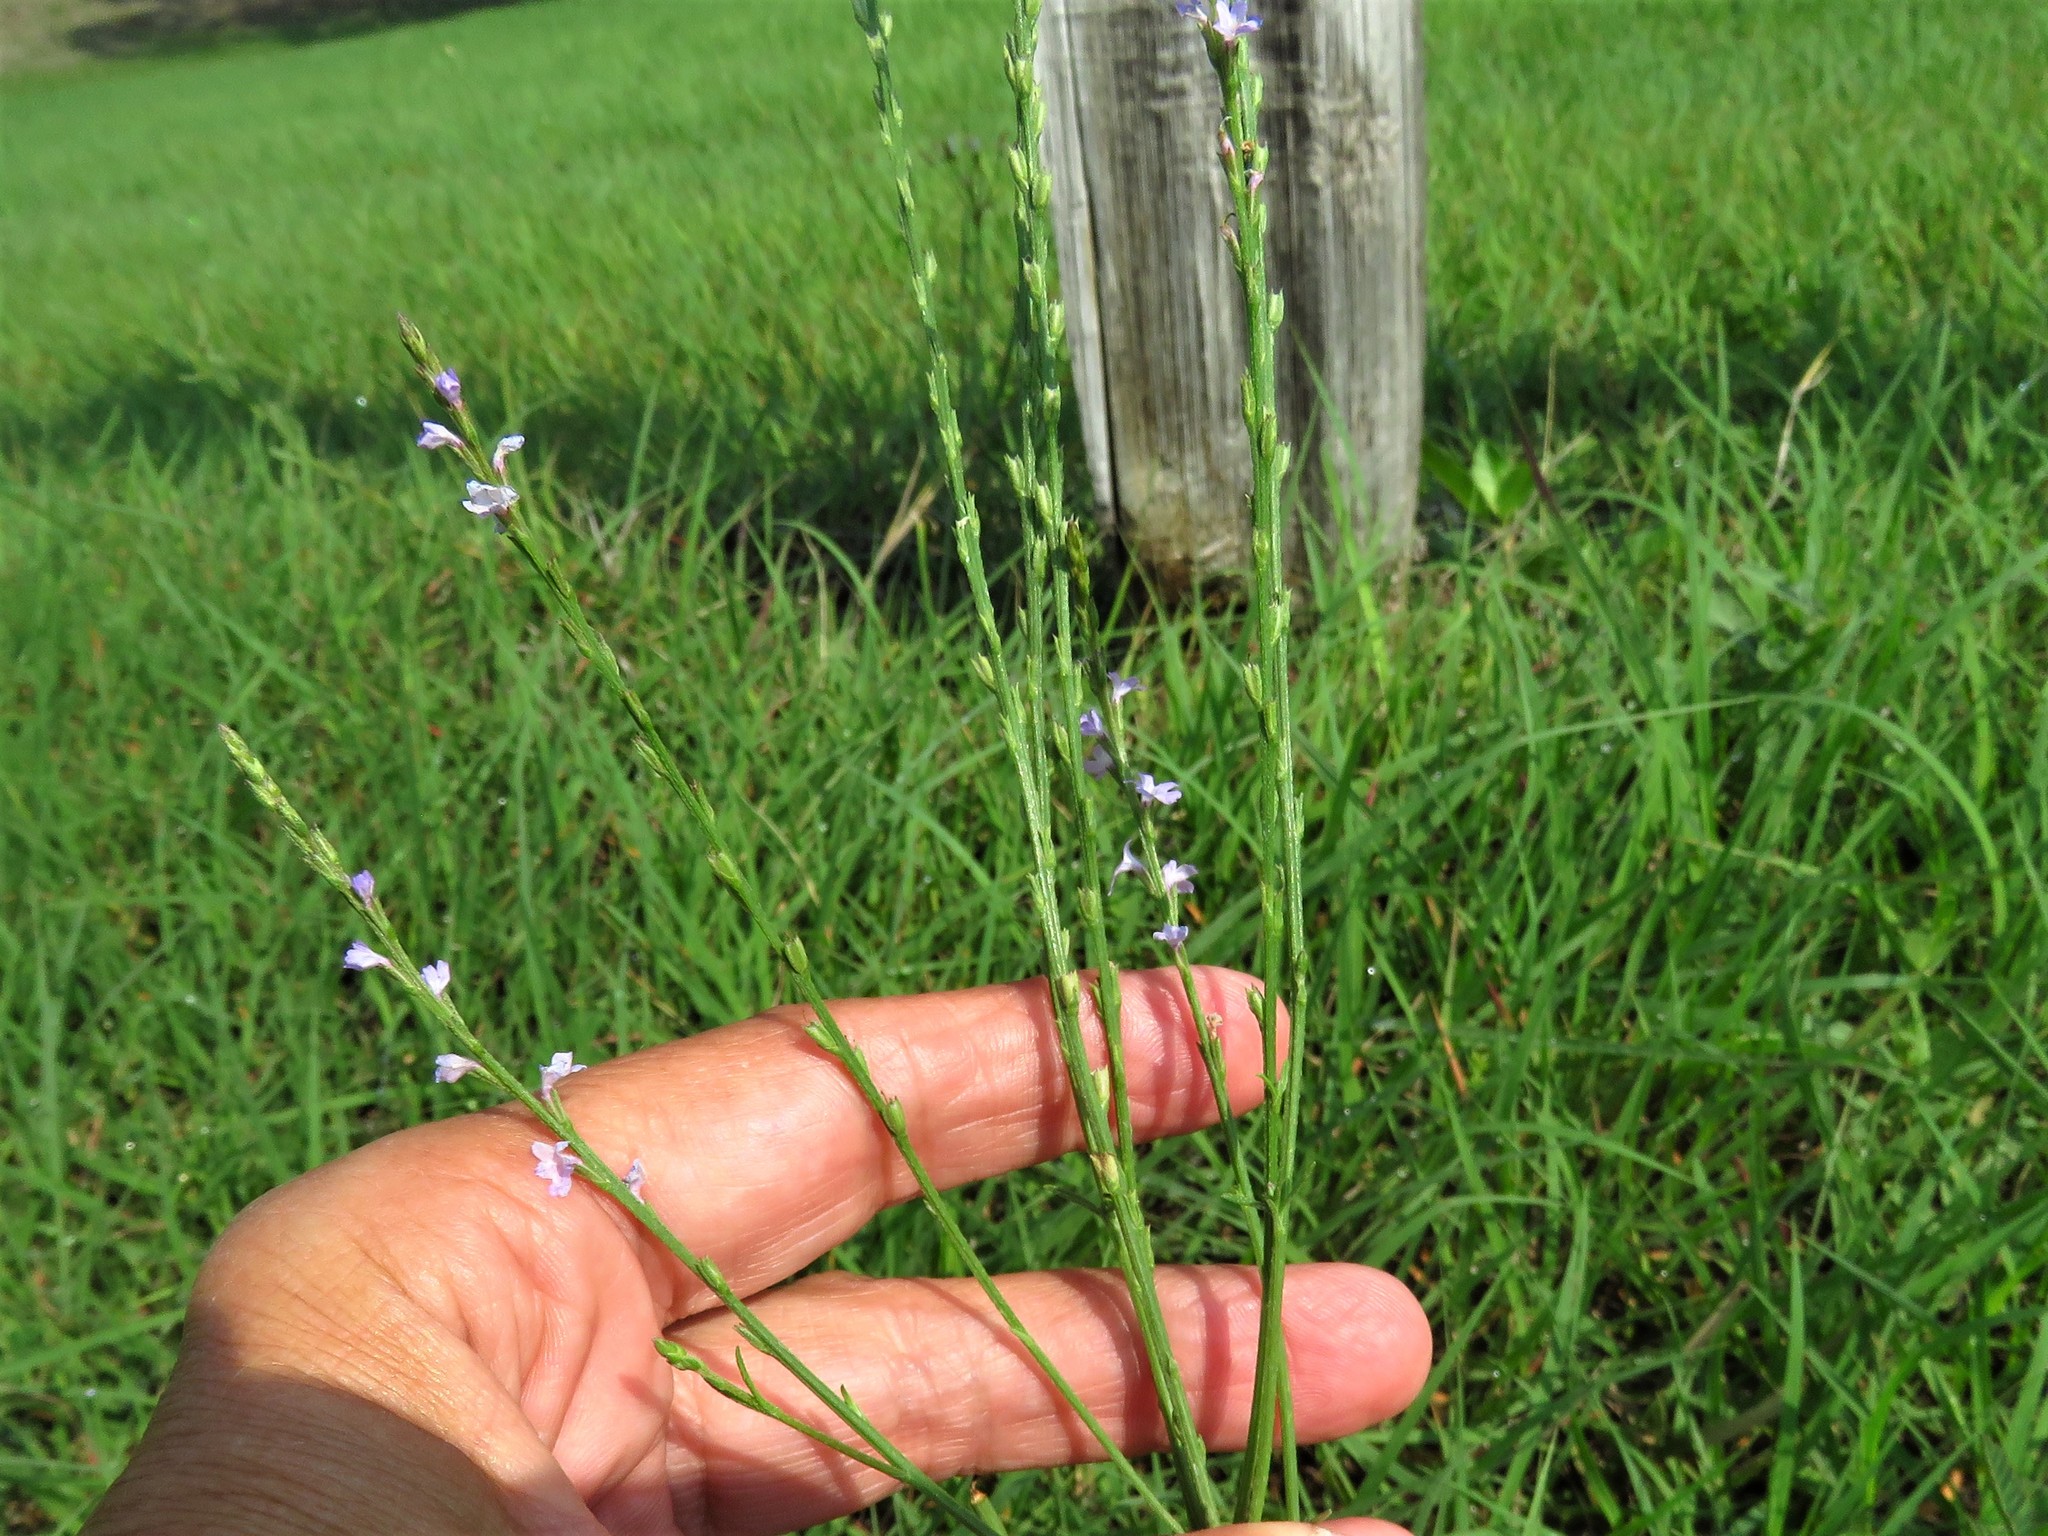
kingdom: Plantae
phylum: Tracheophyta
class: Magnoliopsida
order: Lamiales
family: Verbenaceae
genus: Verbena
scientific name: Verbena halei
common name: Texas vervain
